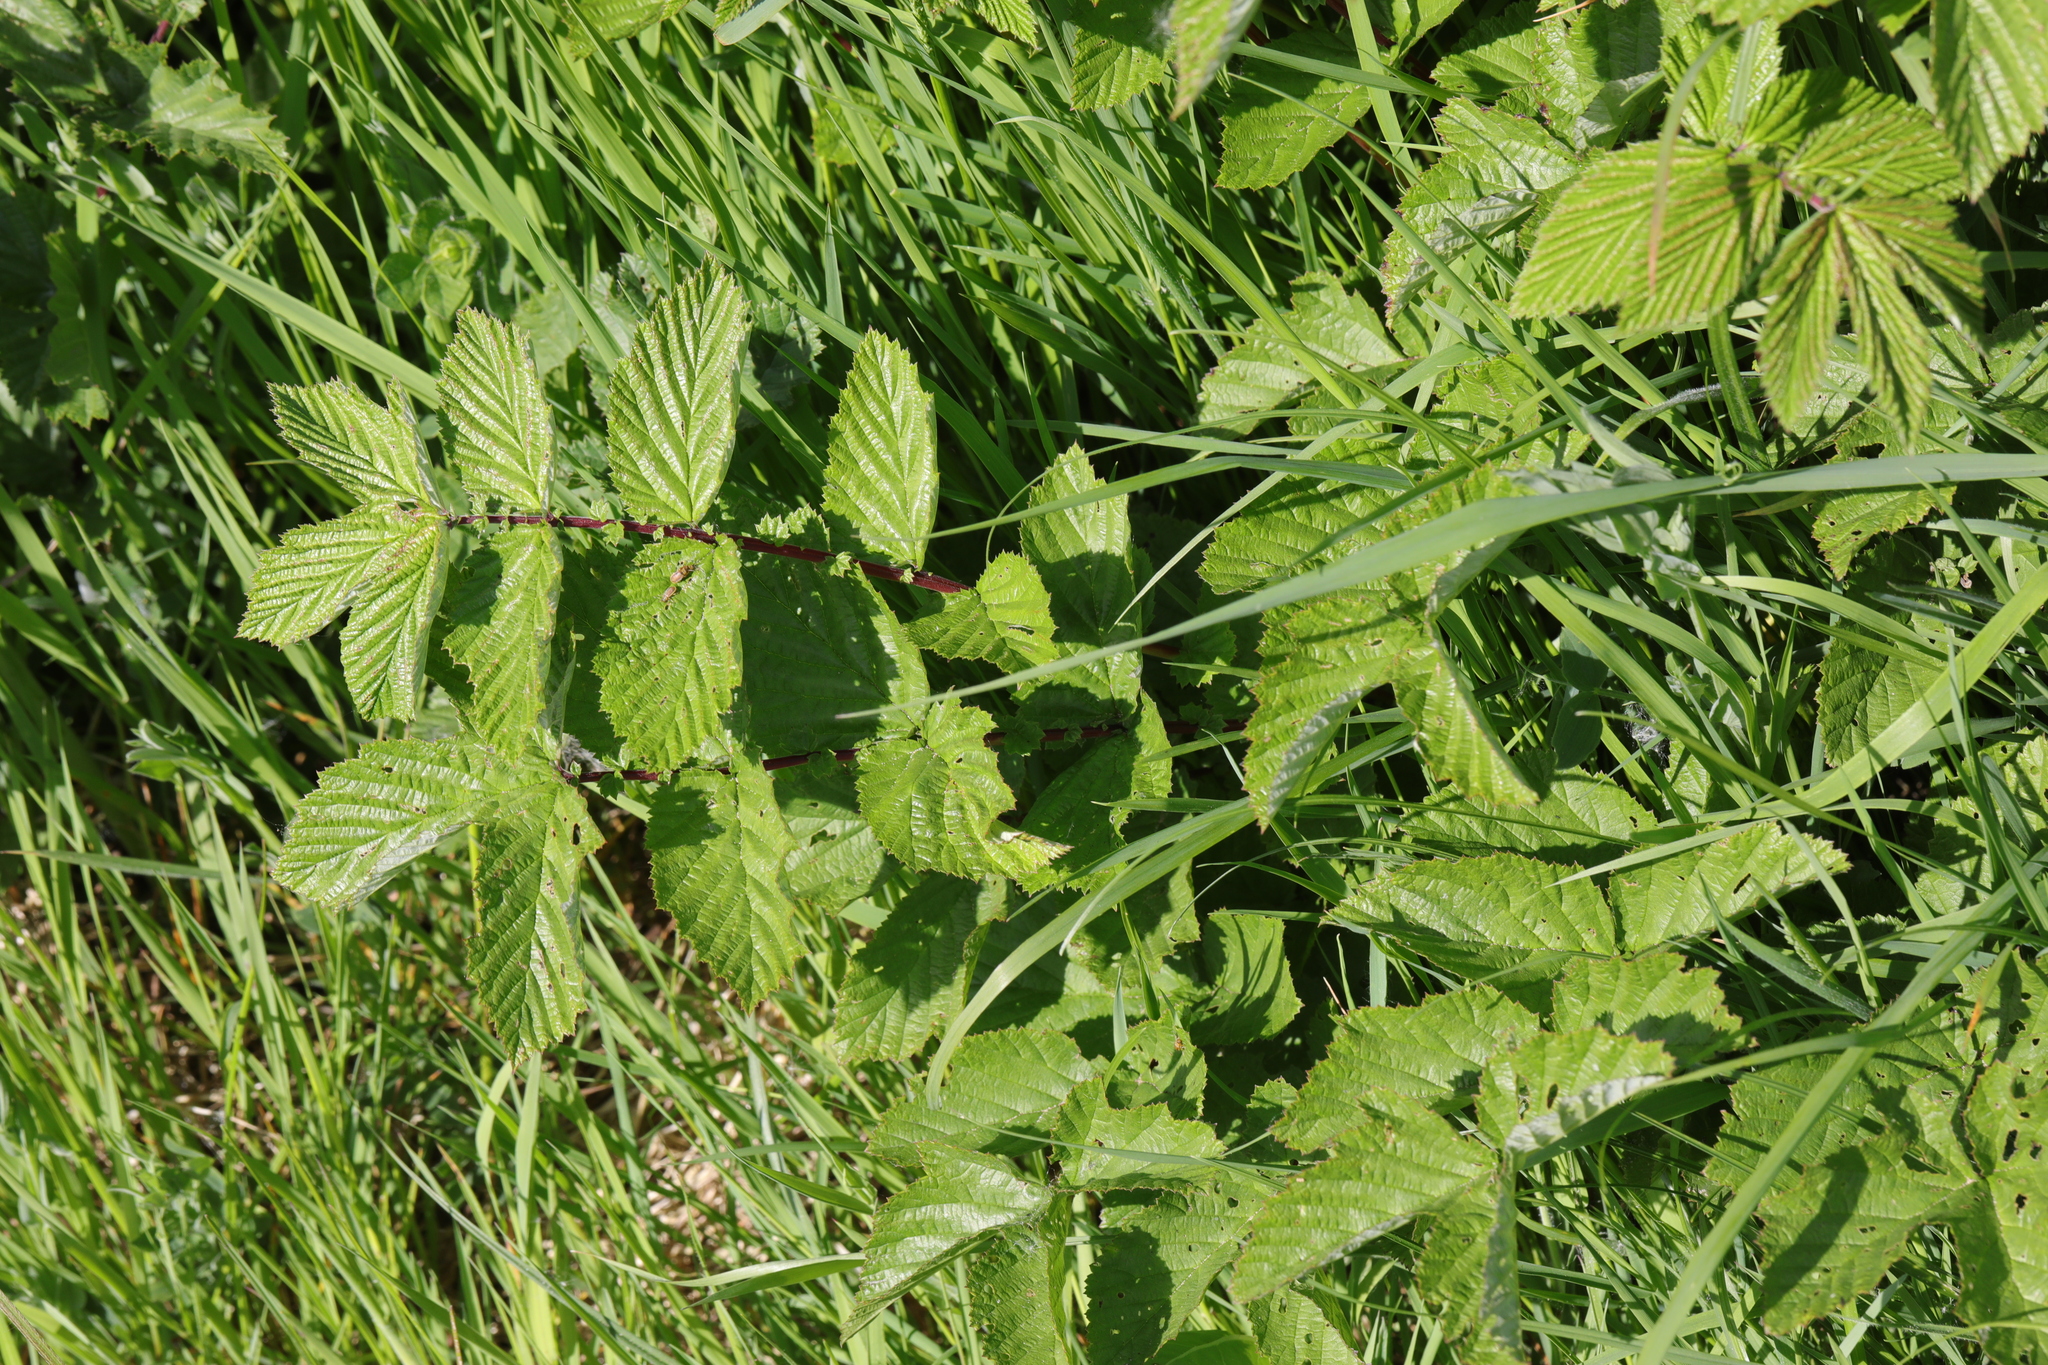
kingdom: Plantae
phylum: Tracheophyta
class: Magnoliopsida
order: Rosales
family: Rosaceae
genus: Filipendula
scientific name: Filipendula ulmaria
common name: Meadowsweet
